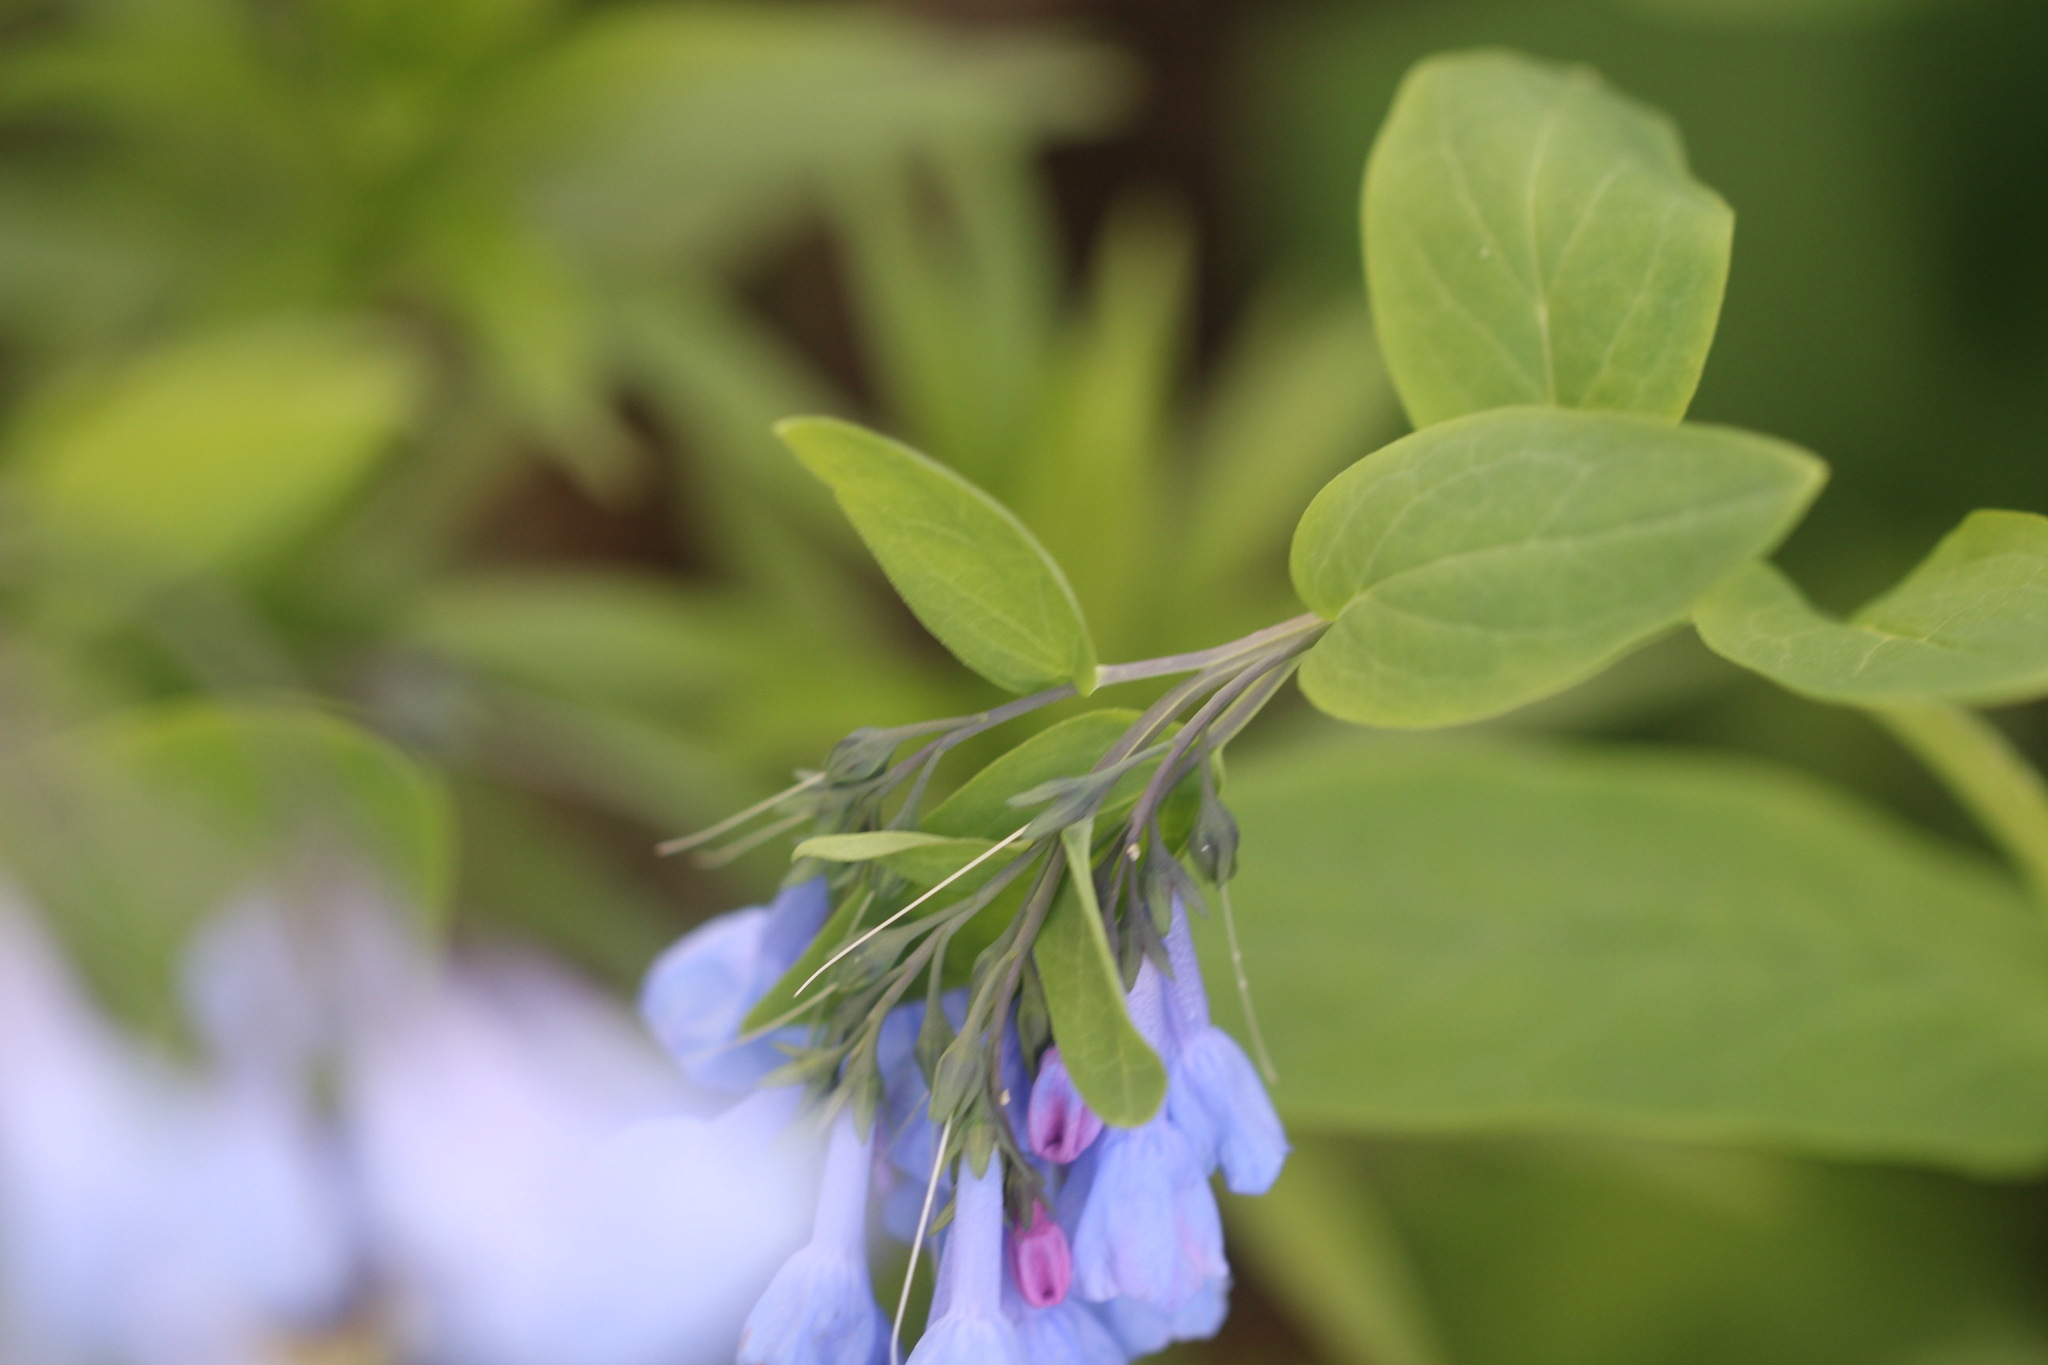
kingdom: Plantae
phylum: Tracheophyta
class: Magnoliopsida
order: Boraginales
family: Boraginaceae
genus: Mertensia
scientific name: Mertensia virginica
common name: Virginia bluebells
